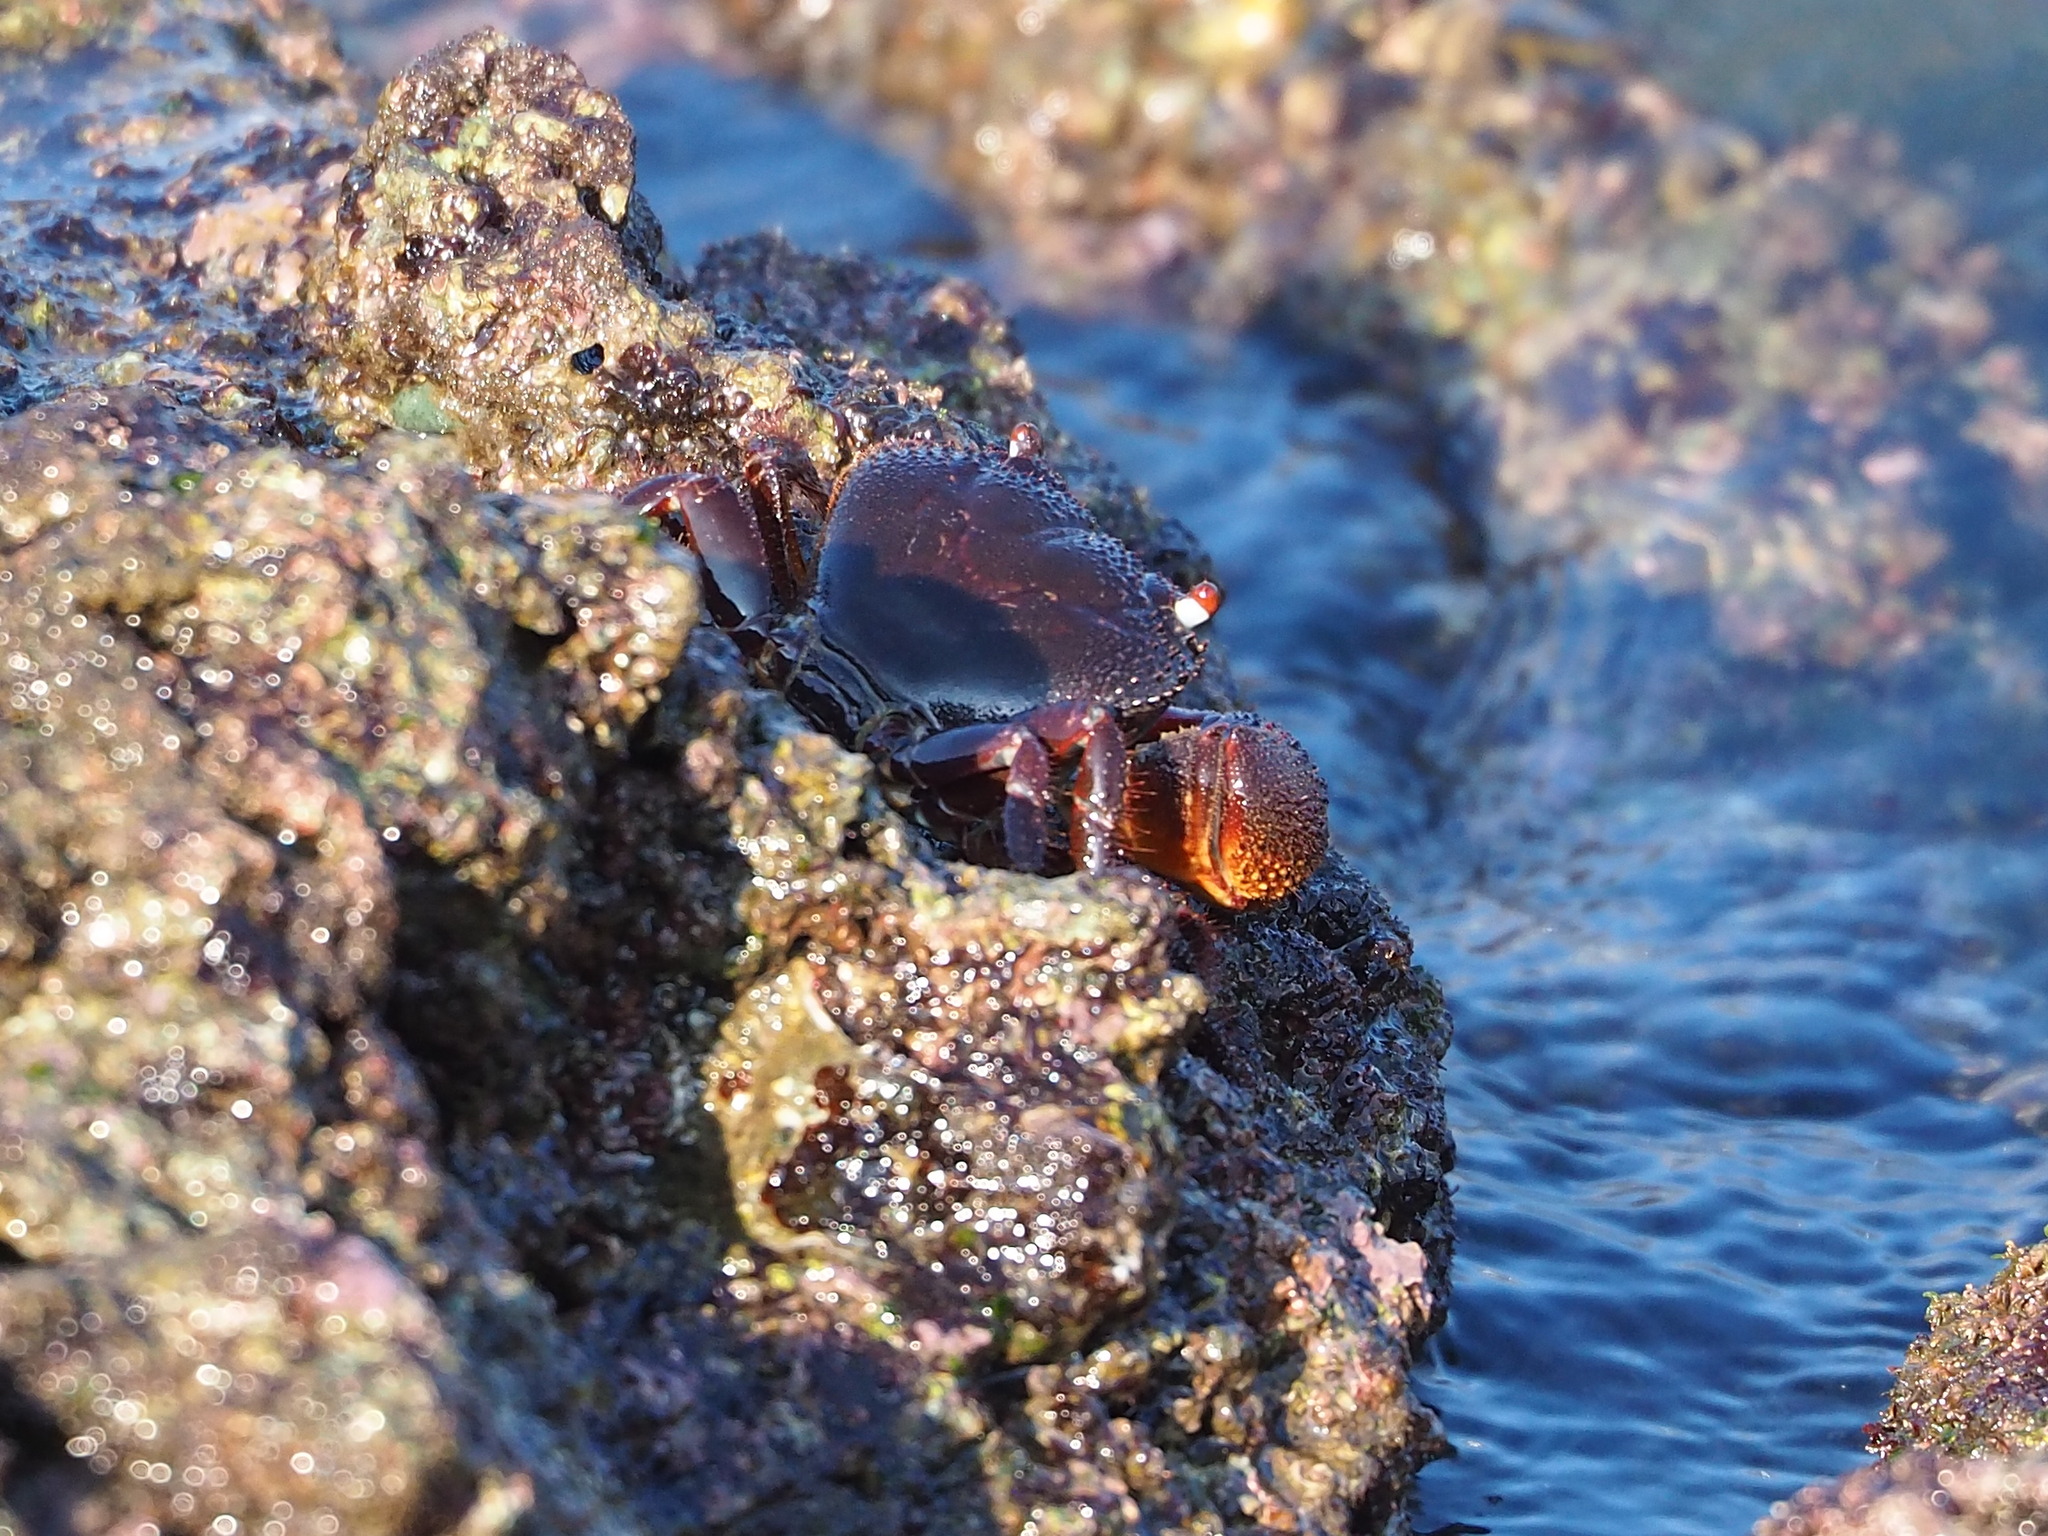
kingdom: Animalia
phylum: Arthropoda
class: Malacostraca
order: Decapoda
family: Eriphiidae
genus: Eriphia
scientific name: Eriphia ferox
